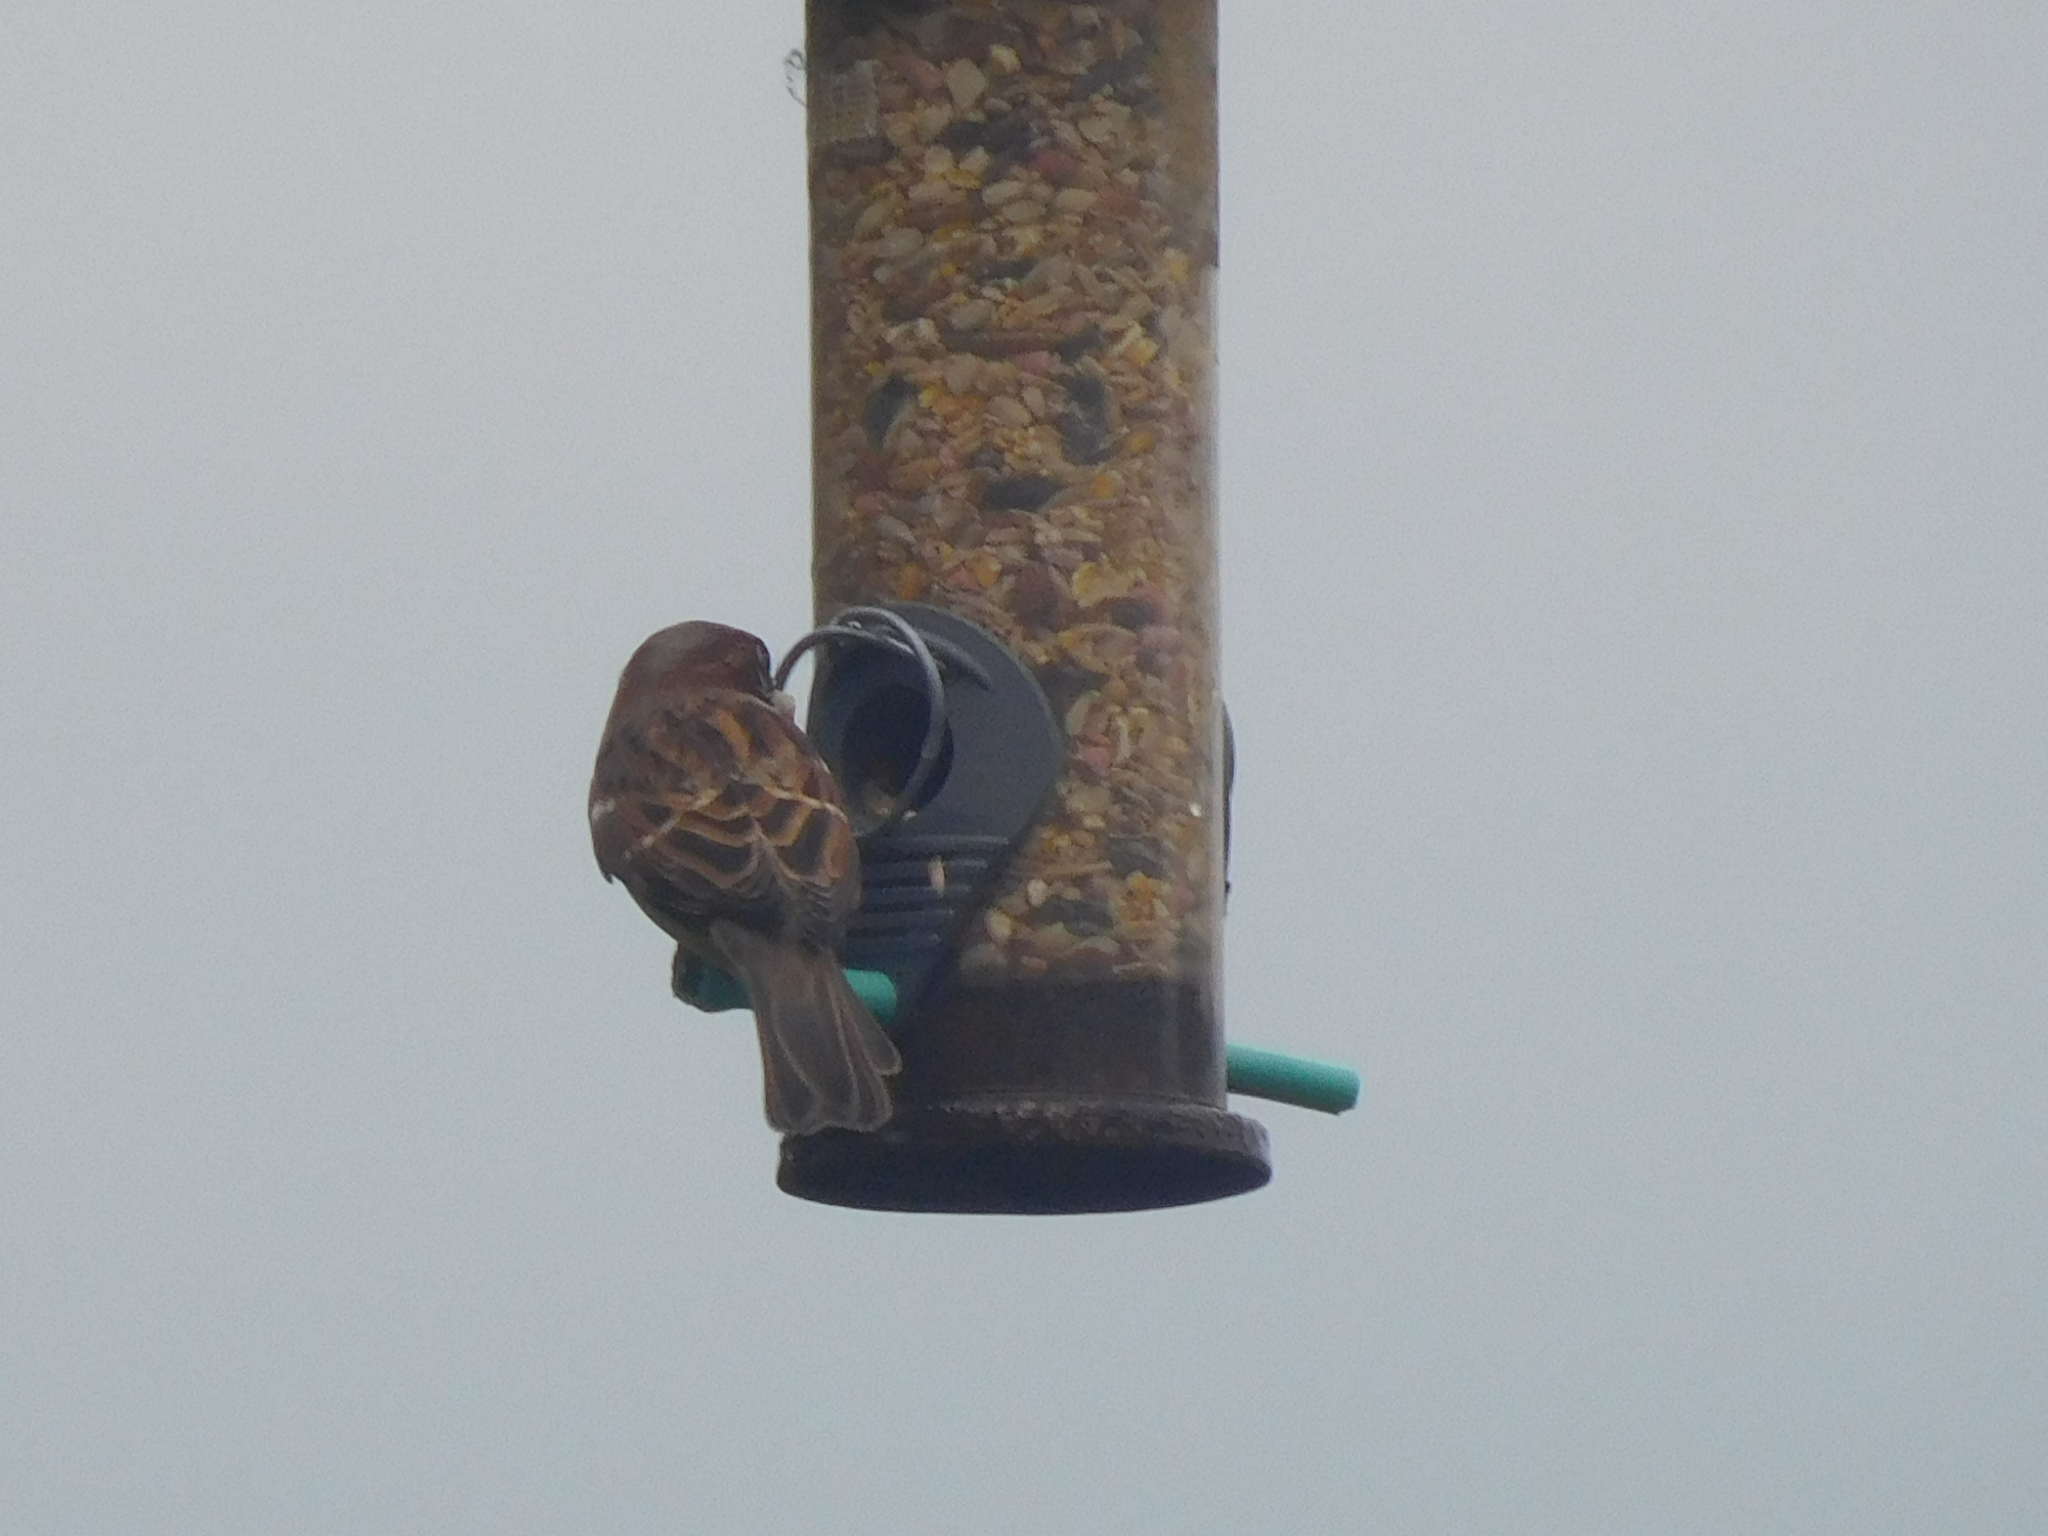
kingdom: Animalia
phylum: Chordata
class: Aves
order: Passeriformes
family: Passeridae
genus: Passer
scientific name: Passer domesticus
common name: House sparrow
